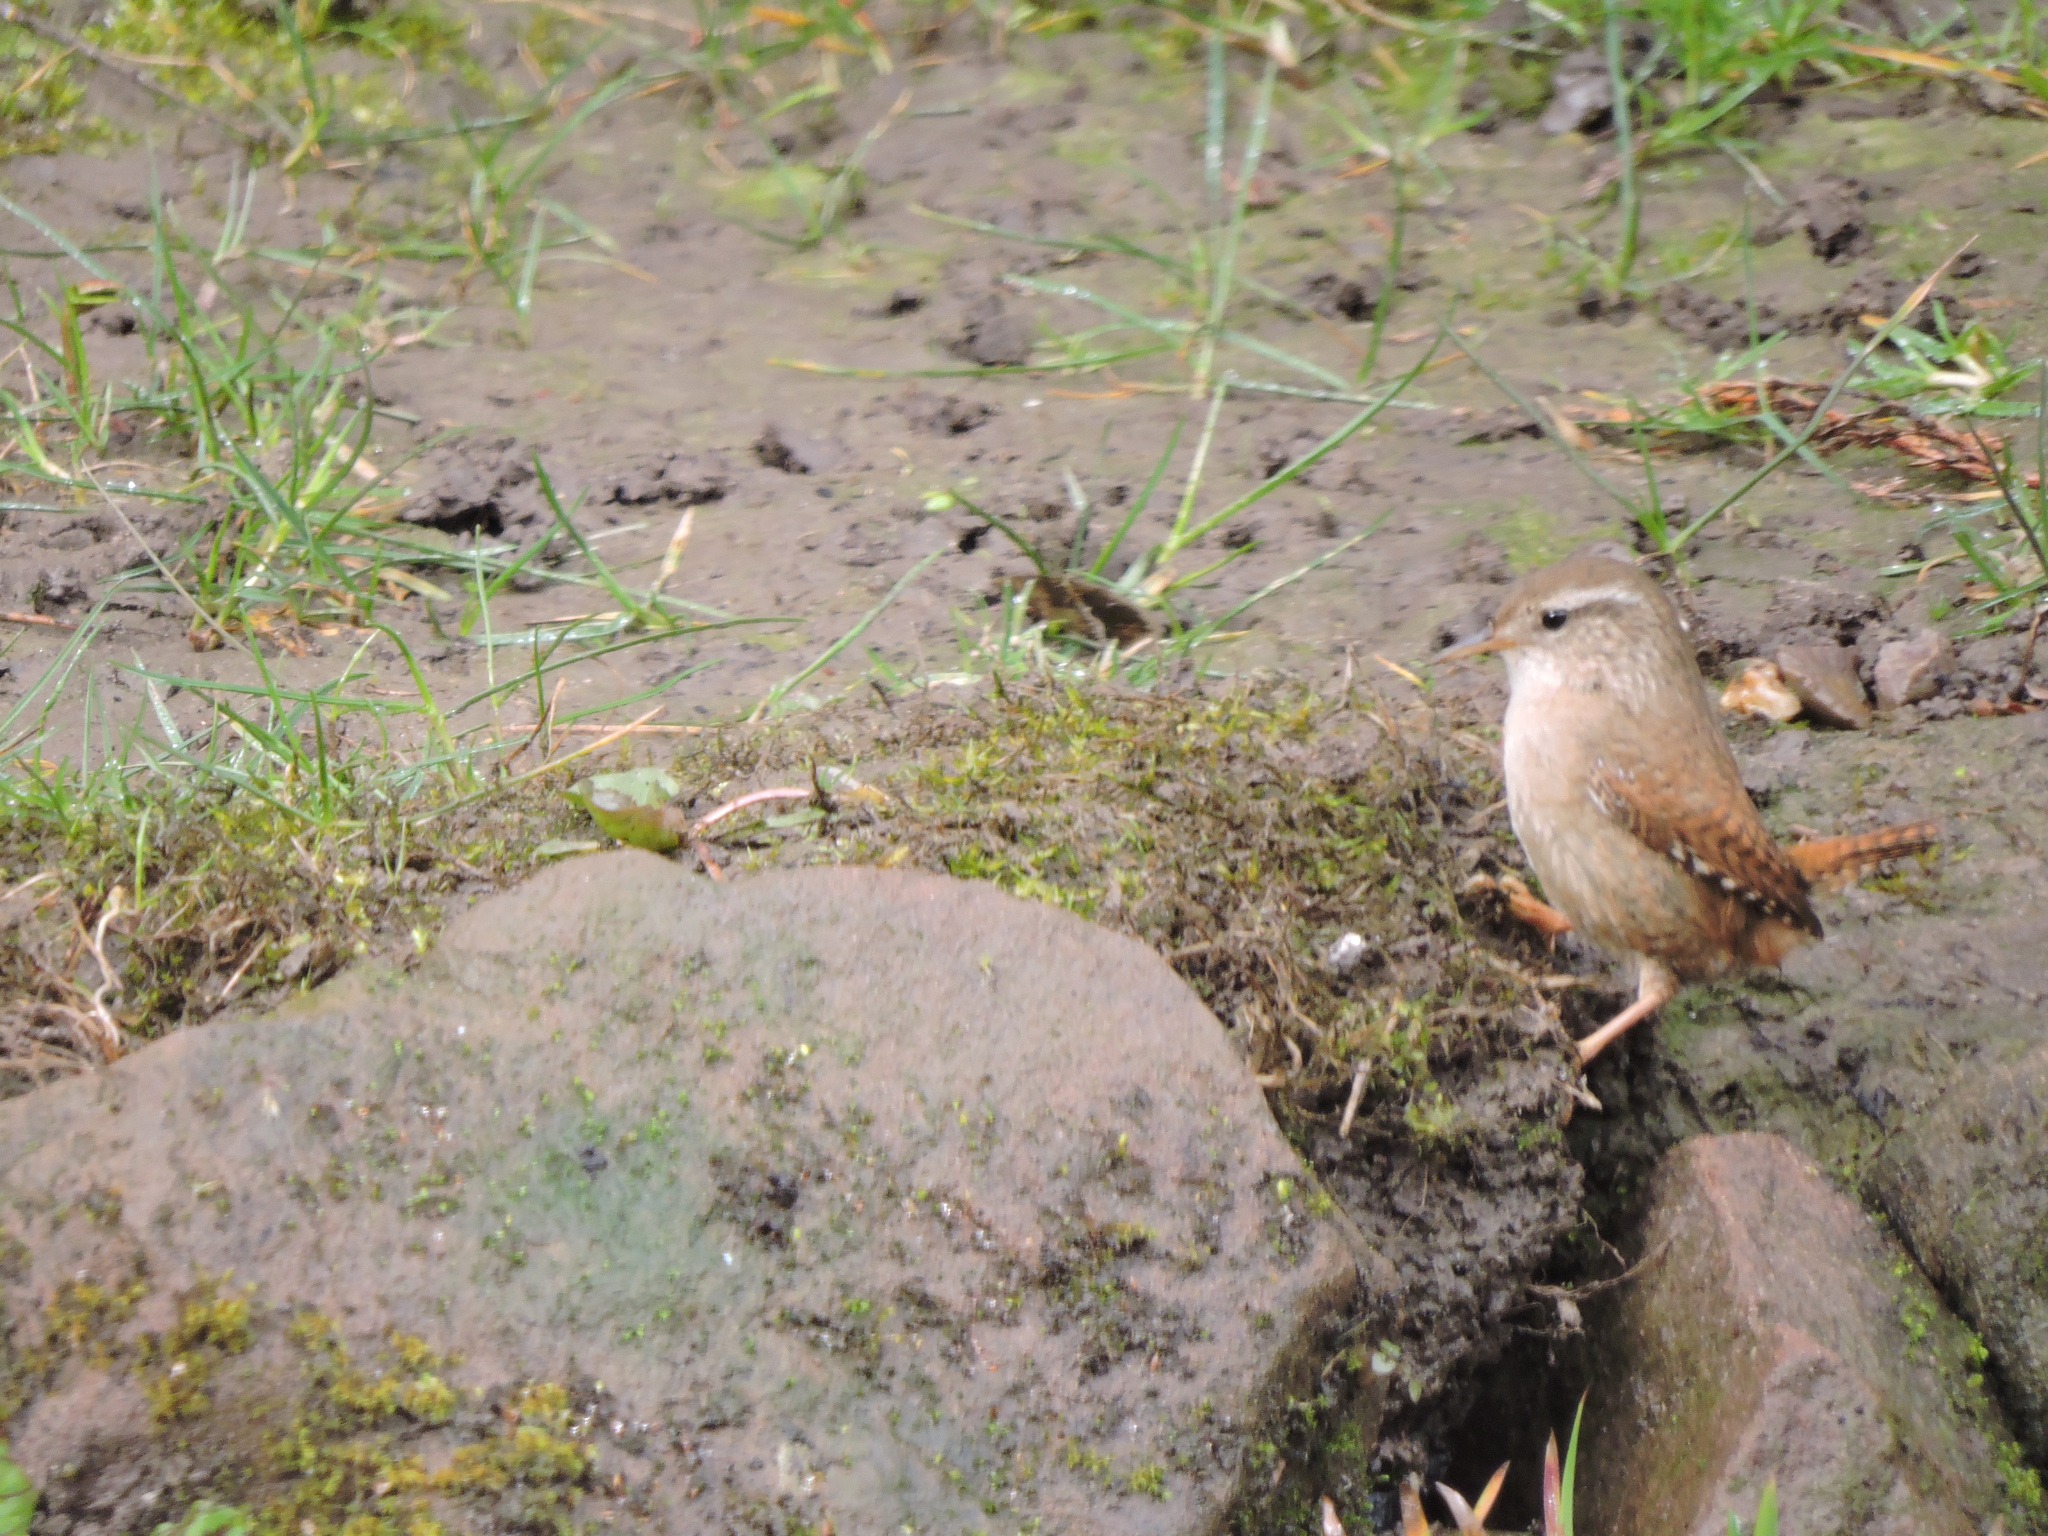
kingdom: Animalia
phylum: Chordata
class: Aves
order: Passeriformes
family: Troglodytidae
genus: Troglodytes
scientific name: Troglodytes troglodytes
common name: Eurasian wren
